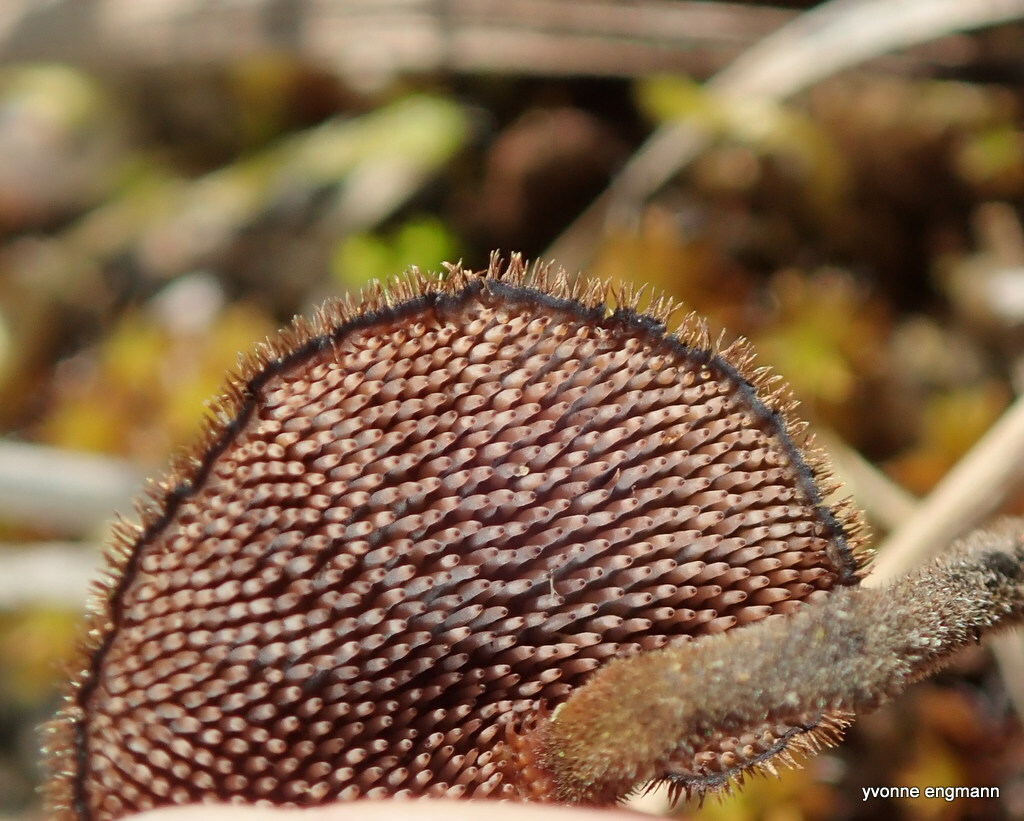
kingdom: Fungi
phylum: Basidiomycota
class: Agaricomycetes
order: Russulales
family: Auriscalpiaceae
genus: Auriscalpium
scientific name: Auriscalpium vulgare
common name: Earpick fungus
